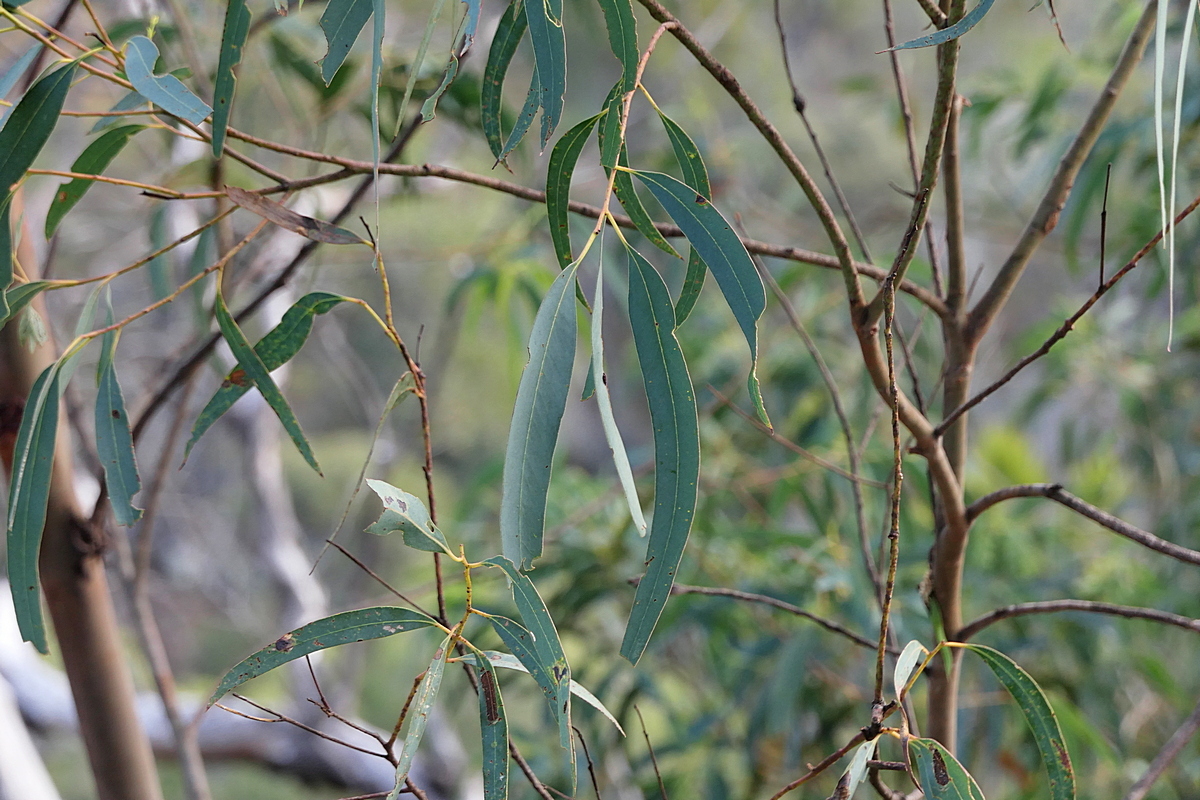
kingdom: Plantae
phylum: Tracheophyta
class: Magnoliopsida
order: Myrtales
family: Myrtaceae
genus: Eucalyptus
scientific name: Eucalyptus wilcoxii
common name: Deua gum
